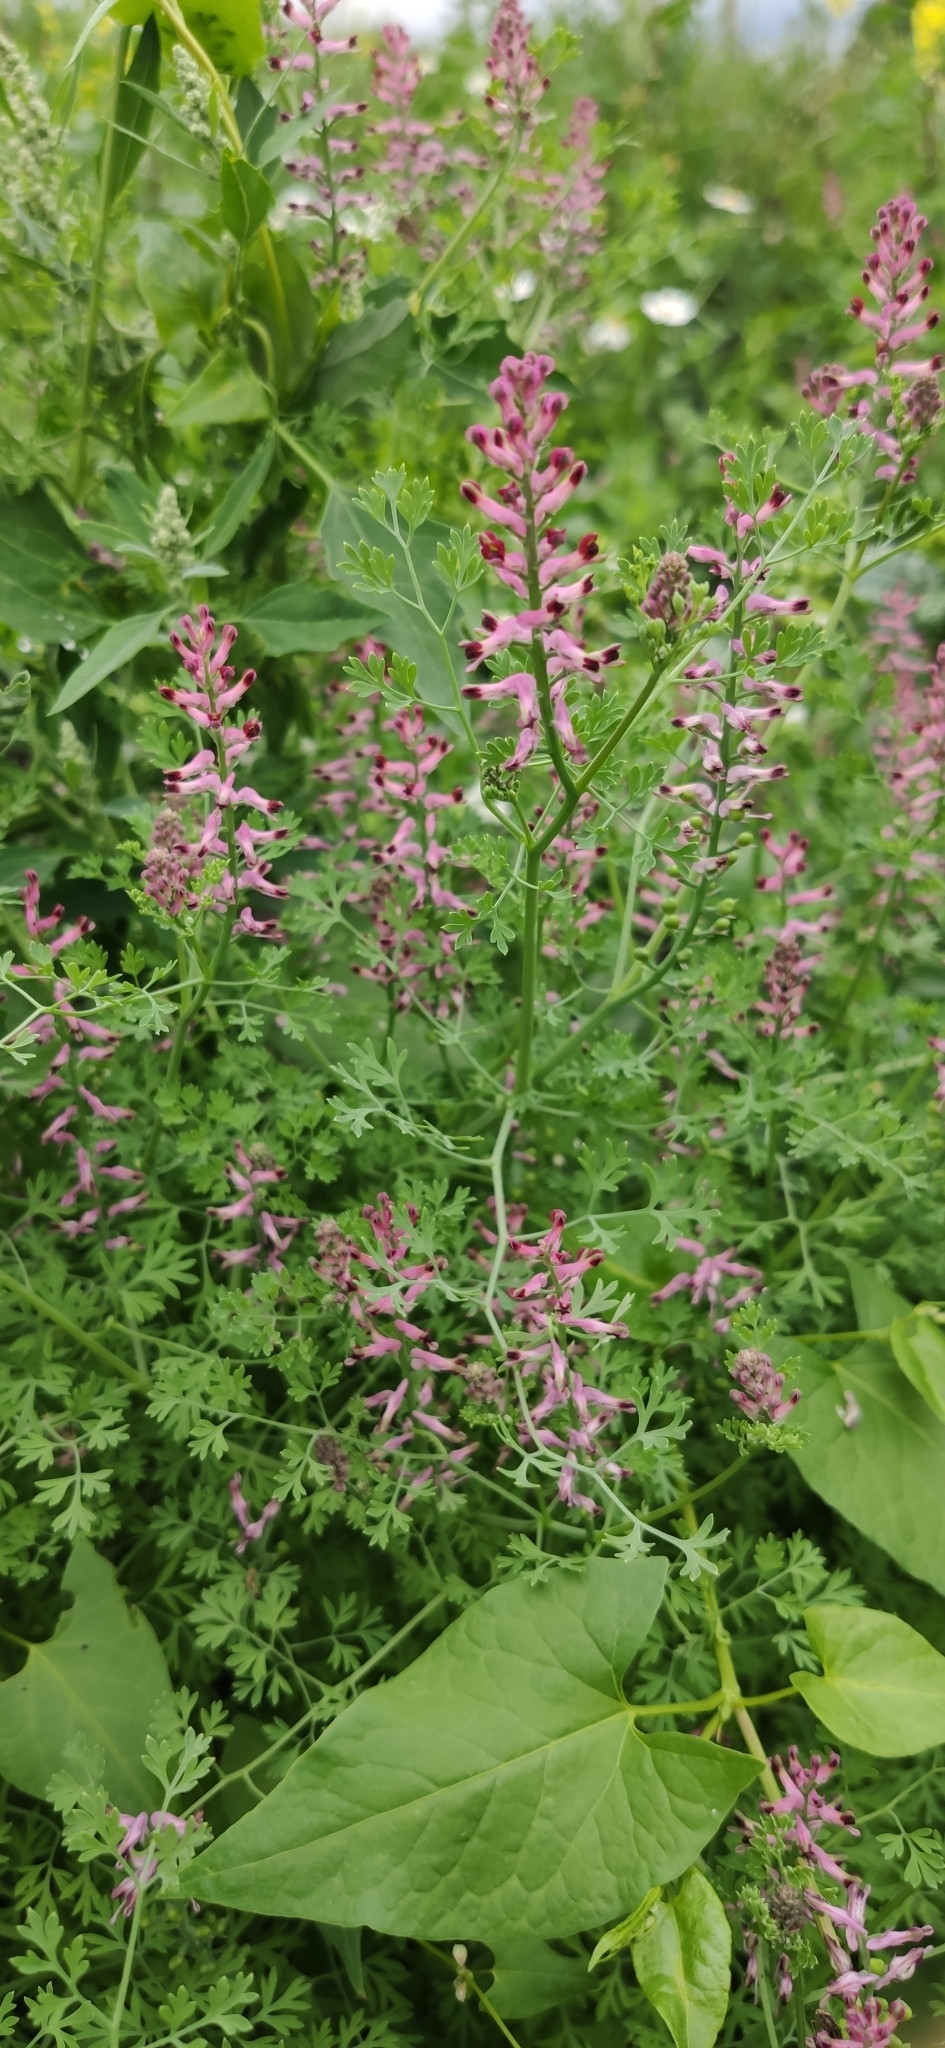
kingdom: Plantae
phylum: Tracheophyta
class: Magnoliopsida
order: Ranunculales
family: Papaveraceae
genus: Fumaria
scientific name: Fumaria officinalis
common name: Common fumitory
